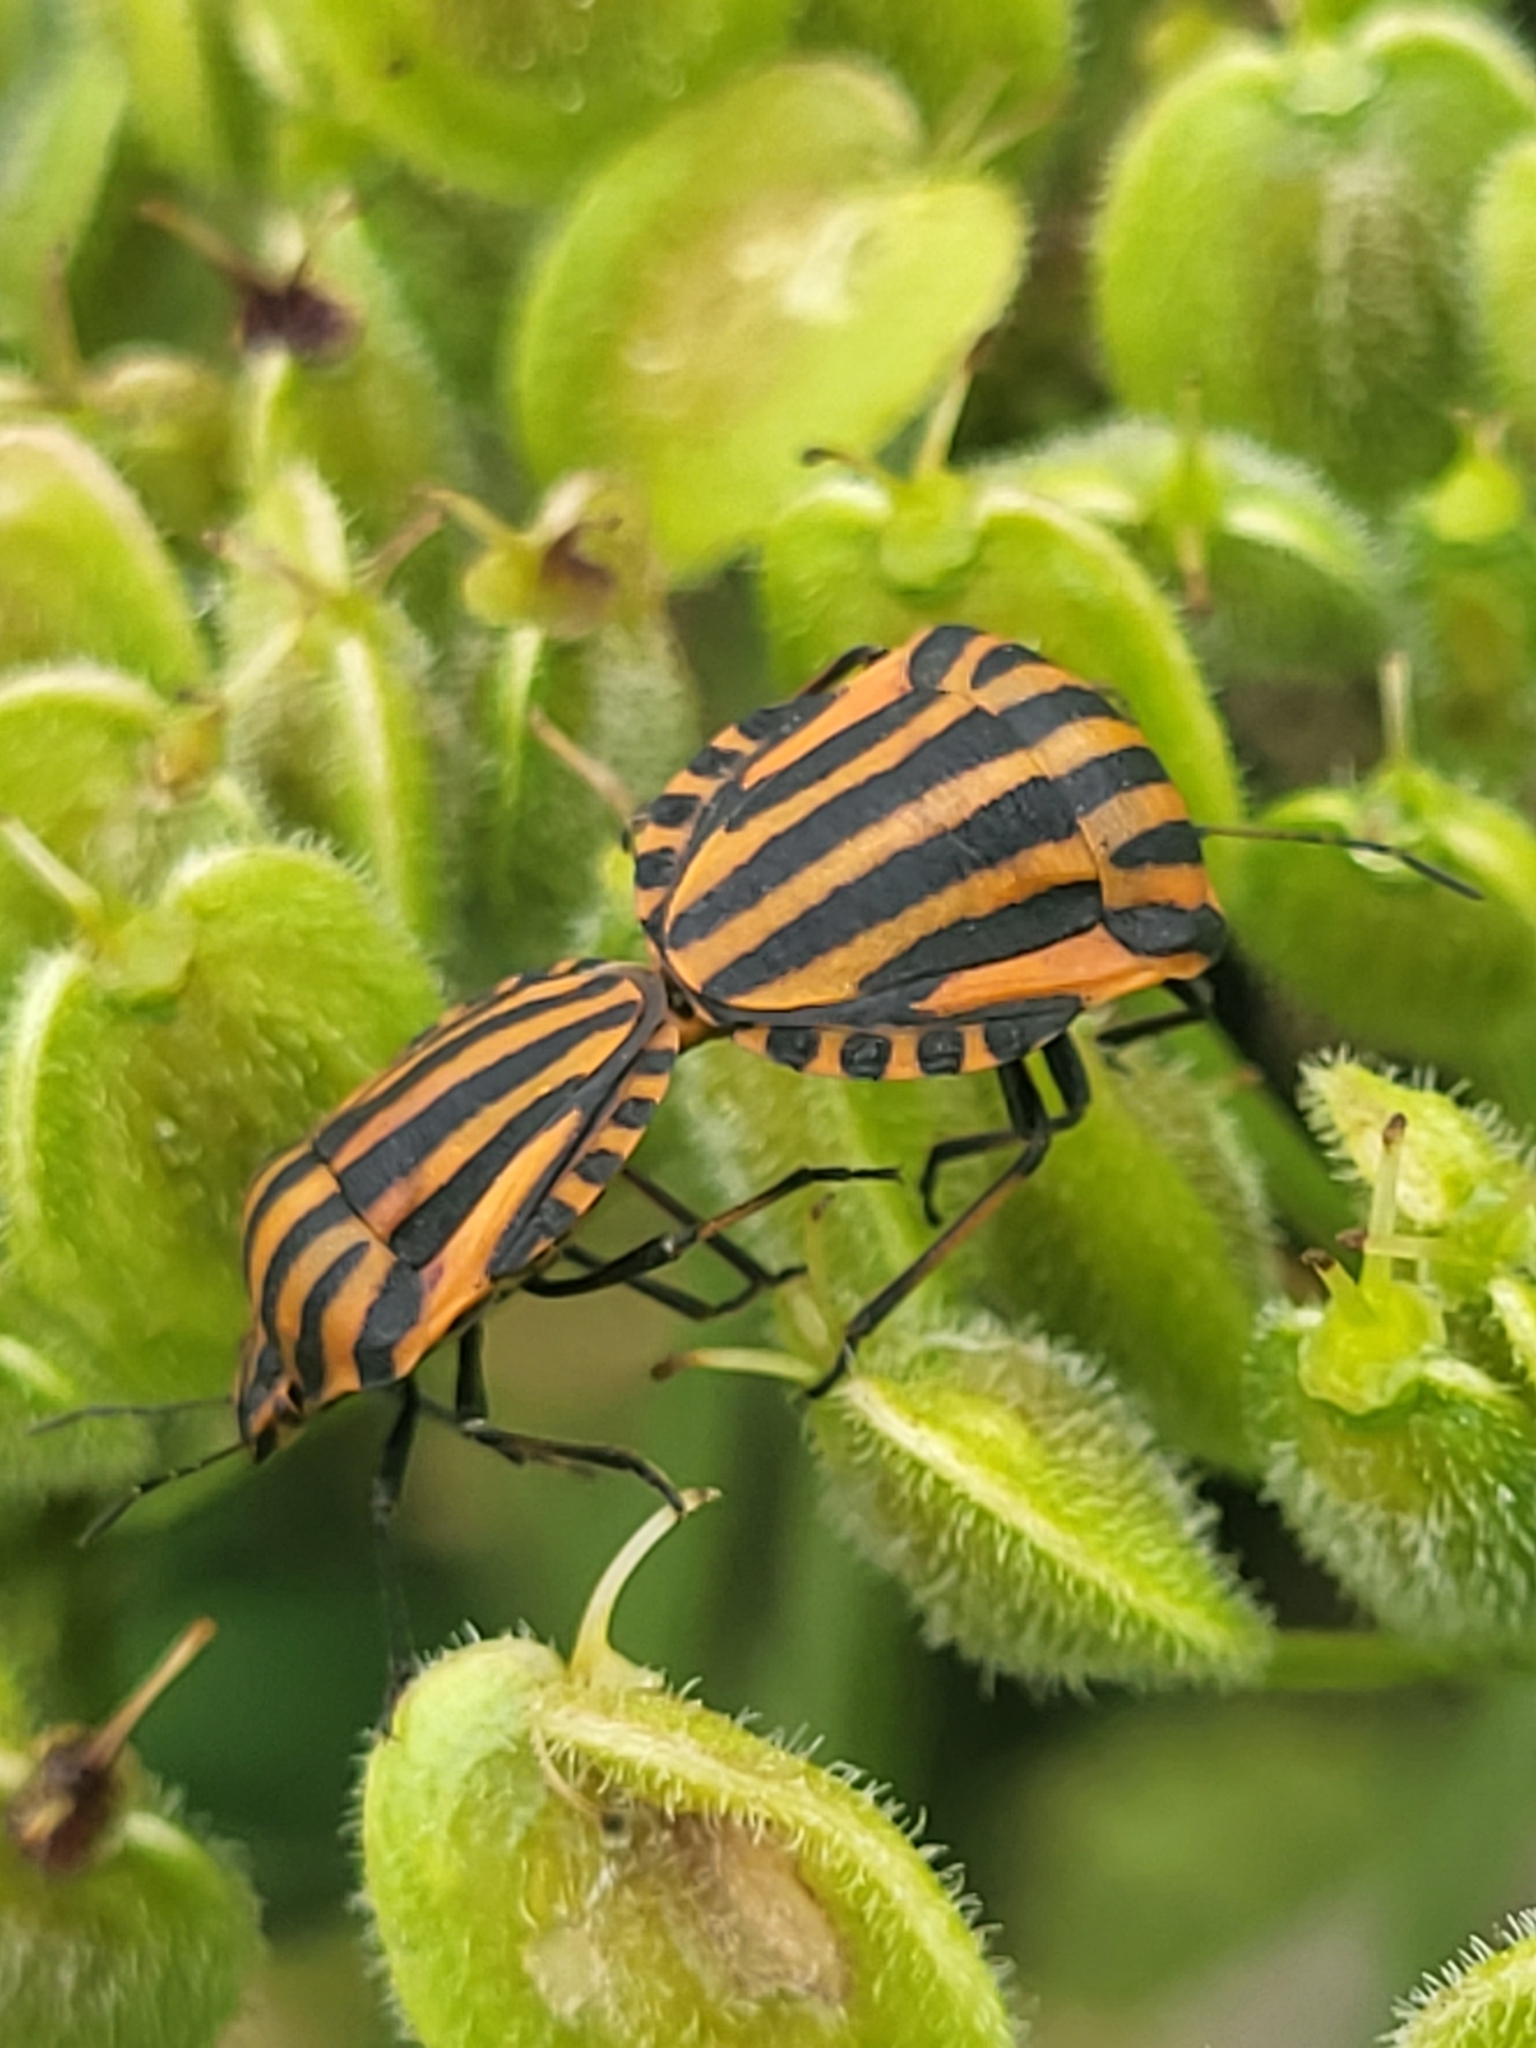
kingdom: Animalia
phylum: Arthropoda
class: Insecta
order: Hemiptera
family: Pentatomidae
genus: Graphosoma
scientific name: Graphosoma italicum
